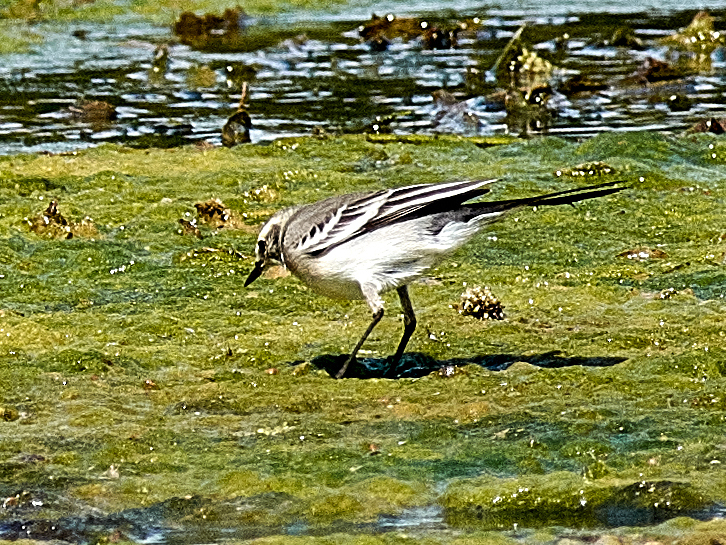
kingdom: Animalia
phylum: Chordata
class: Aves
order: Passeriformes
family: Motacillidae
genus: Motacilla
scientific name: Motacilla alba
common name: White wagtail
